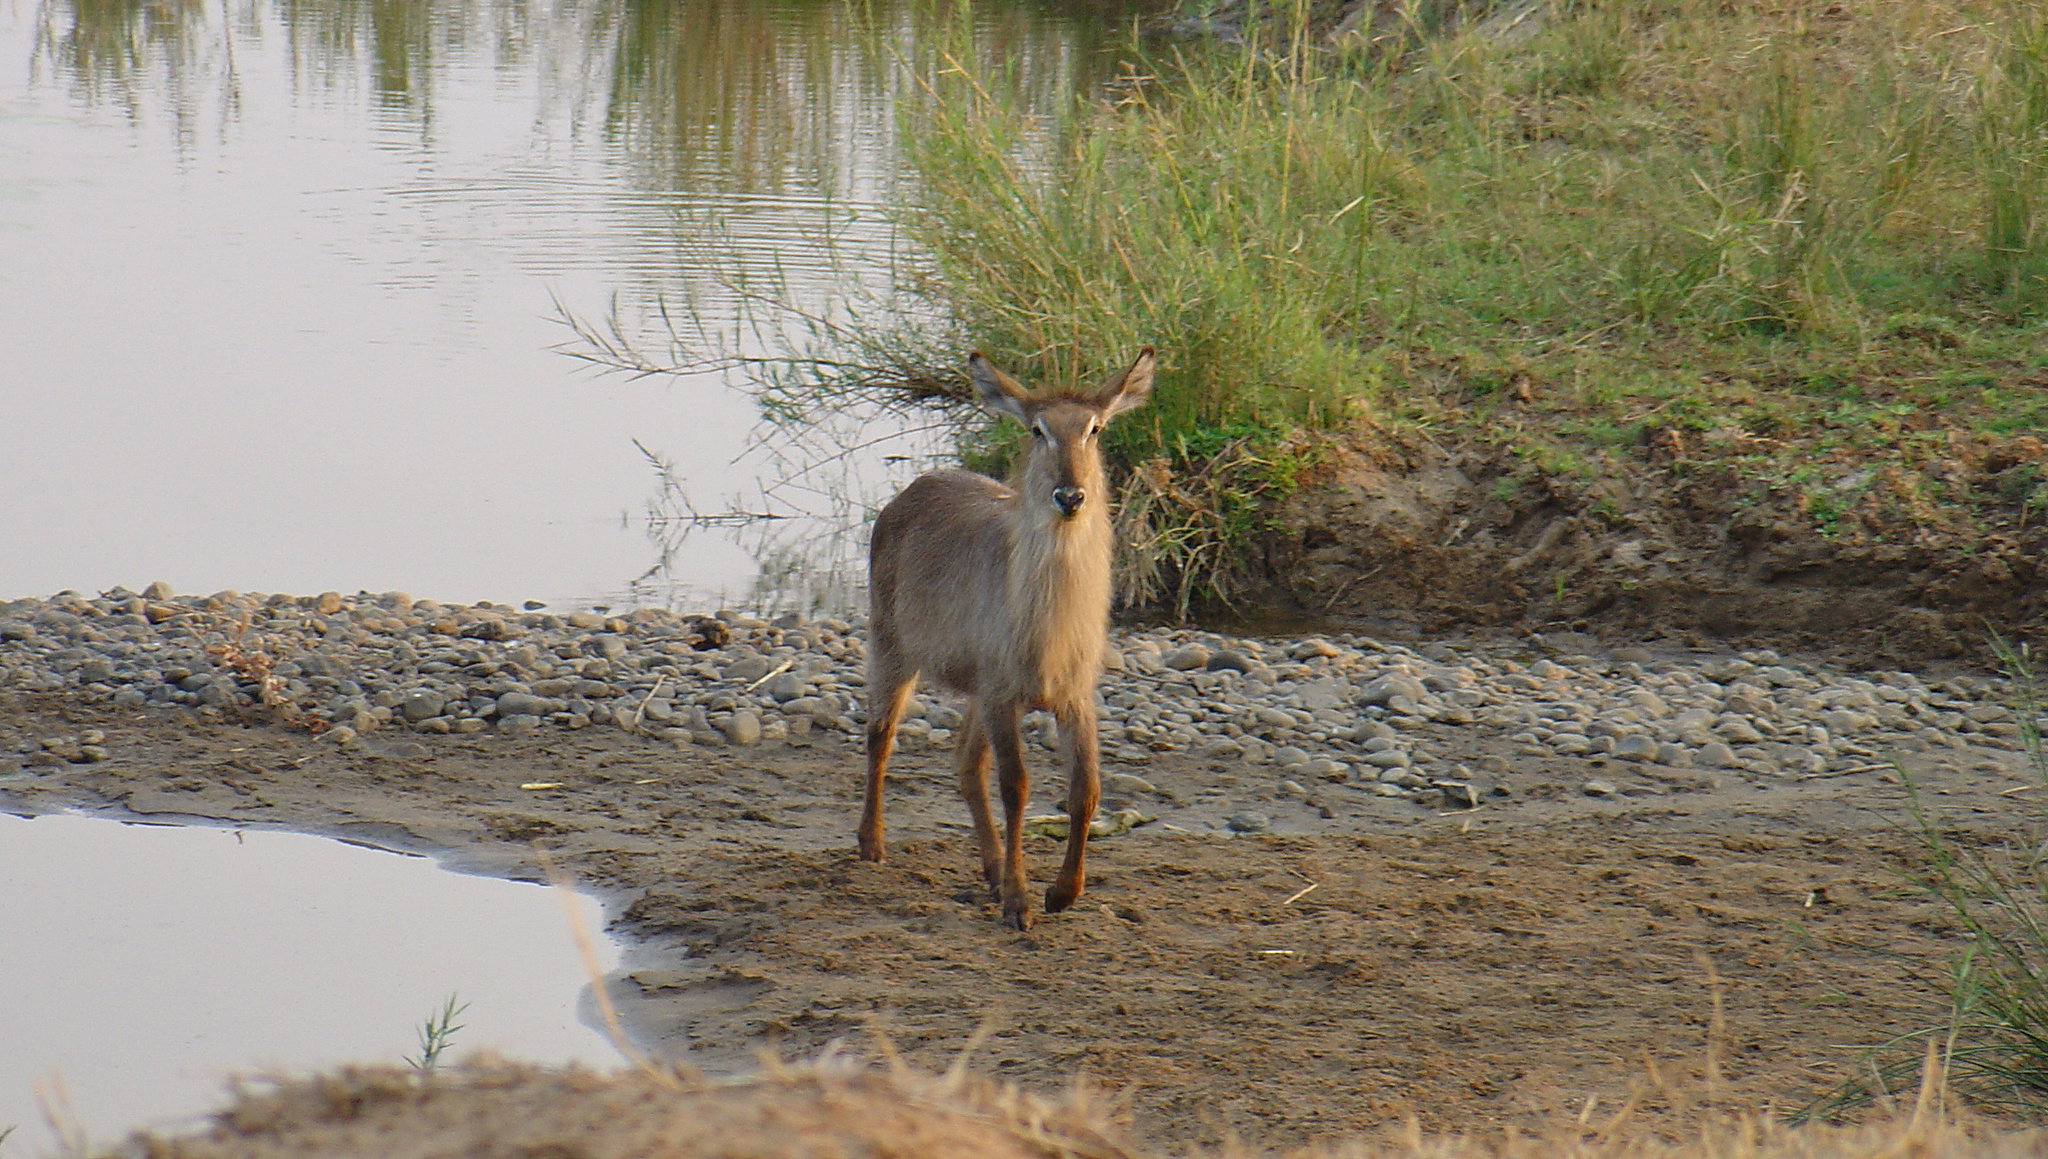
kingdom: Animalia
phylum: Chordata
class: Mammalia
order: Artiodactyla
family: Bovidae
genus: Kobus
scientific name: Kobus ellipsiprymnus
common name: Waterbuck
